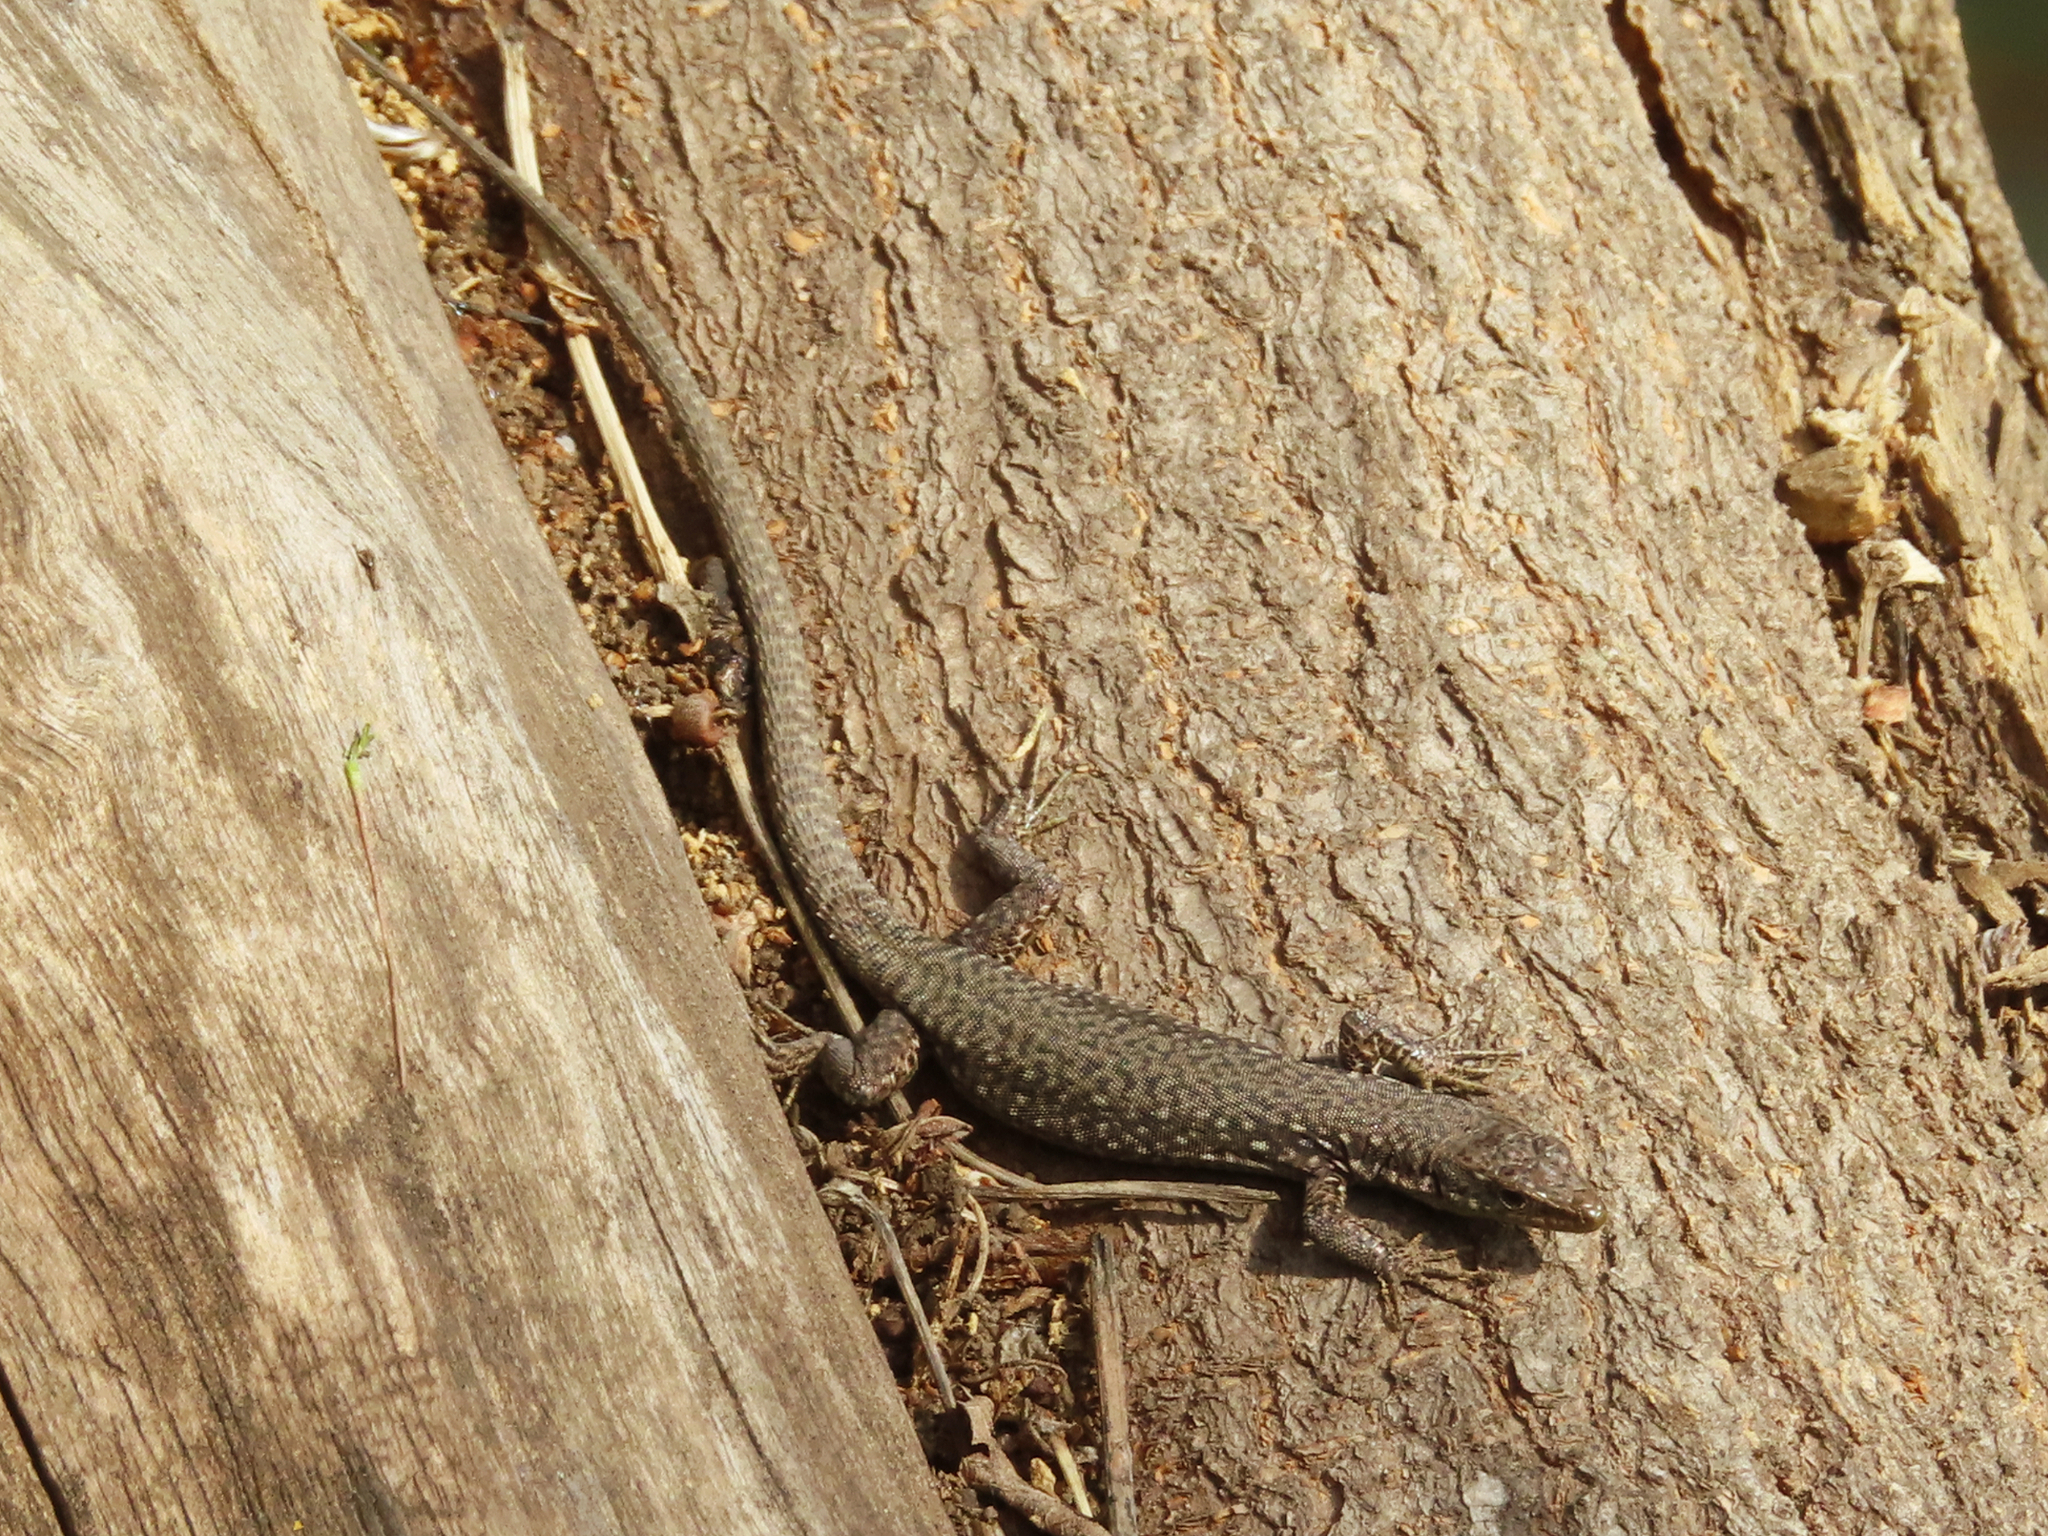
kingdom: Animalia
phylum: Chordata
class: Squamata
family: Lacertidae
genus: Darevskia
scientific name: Darevskia
